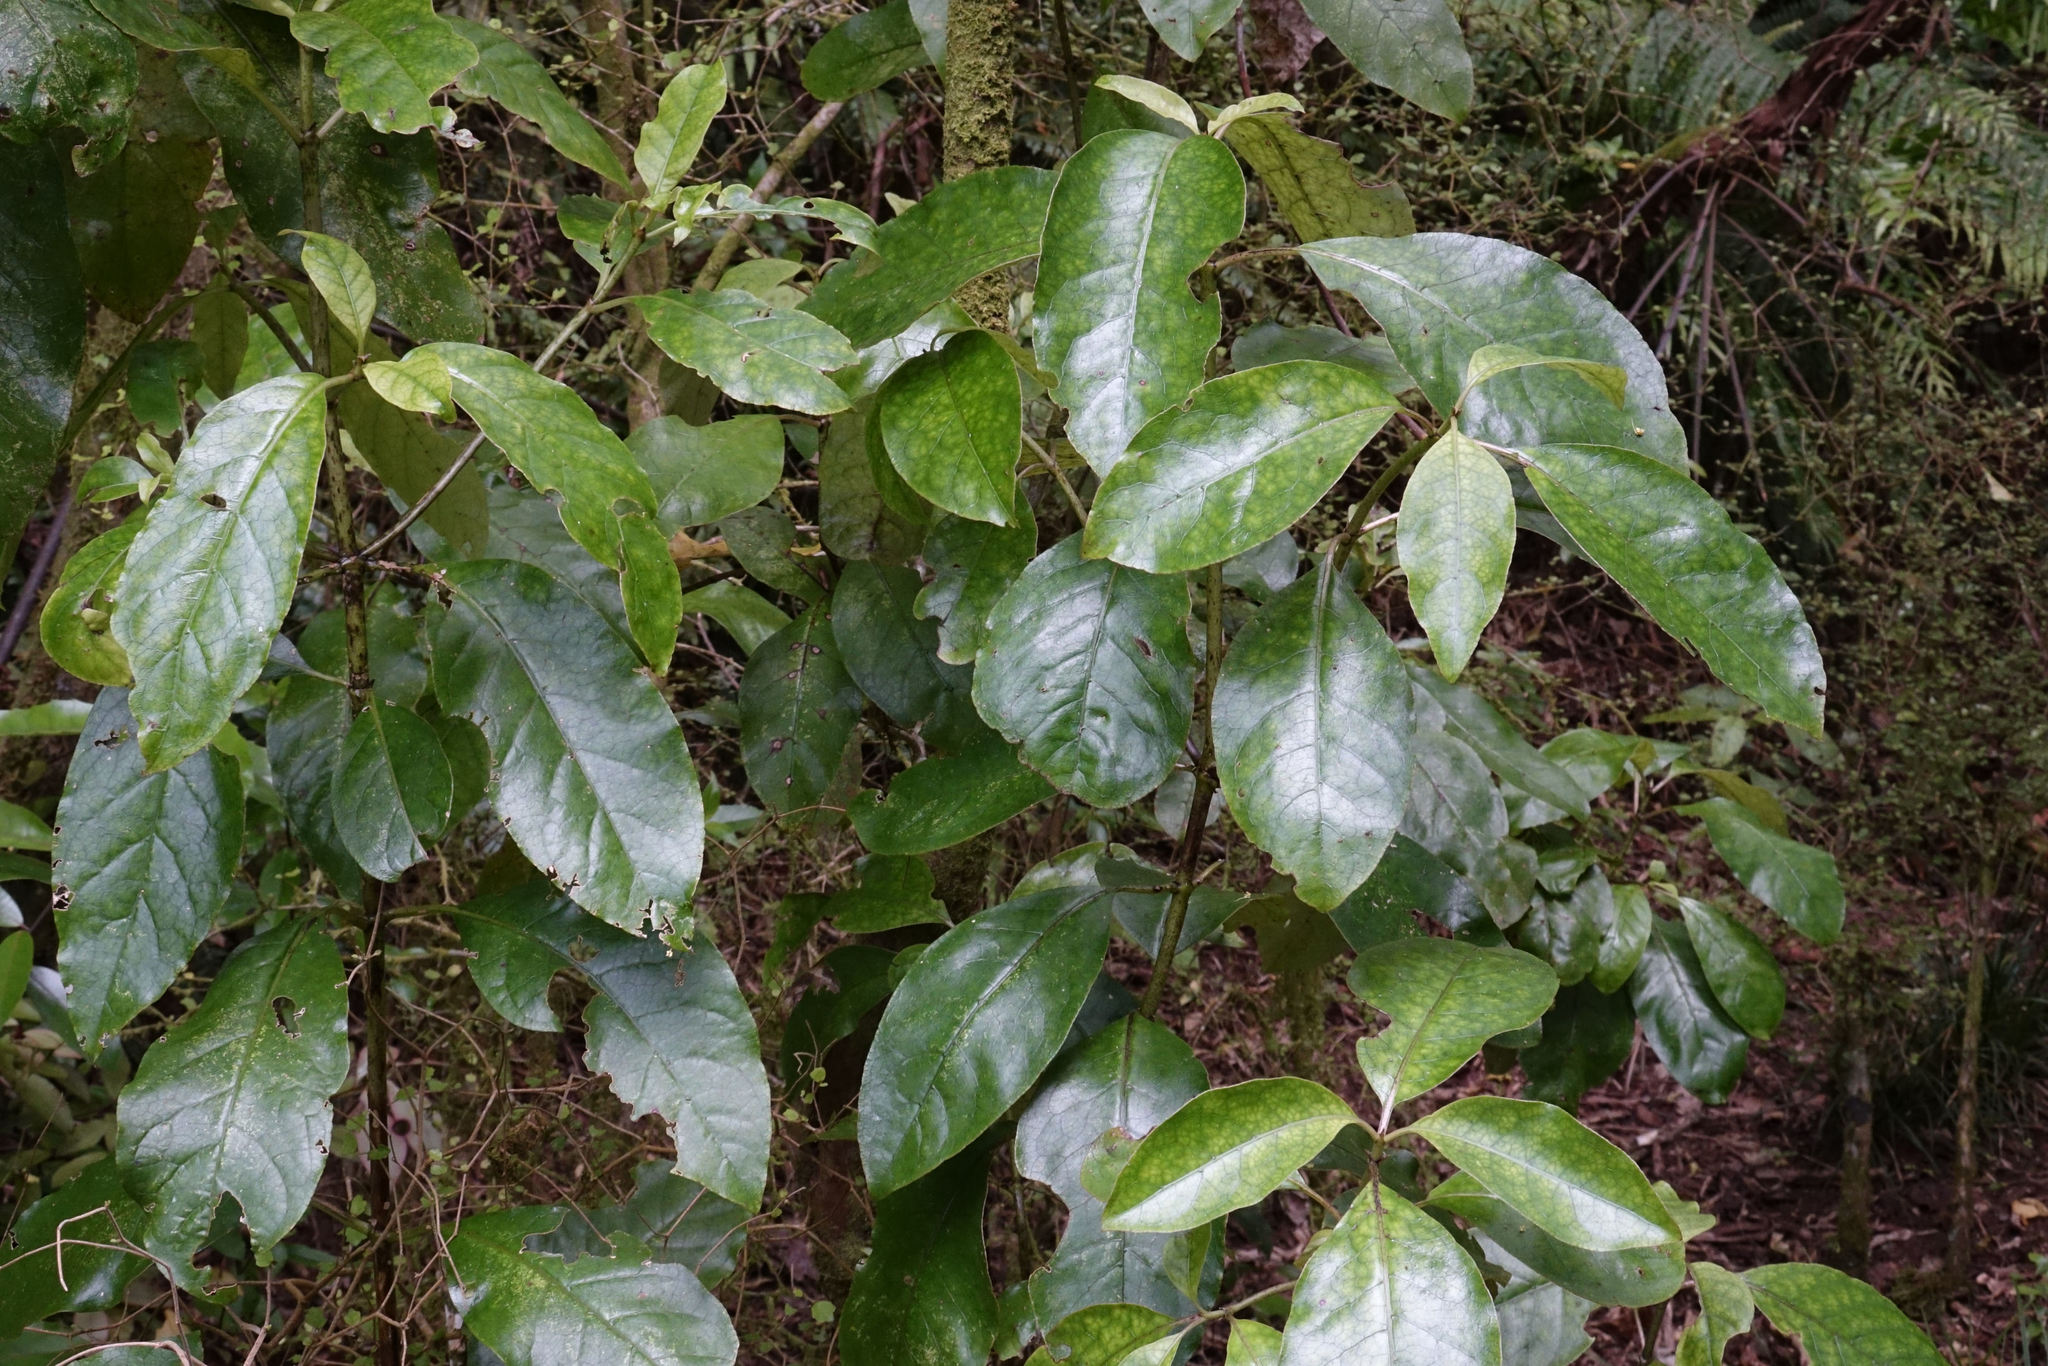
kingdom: Plantae
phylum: Tracheophyta
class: Magnoliopsida
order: Gentianales
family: Rubiaceae
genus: Coprosma
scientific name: Coprosma autumnalis
